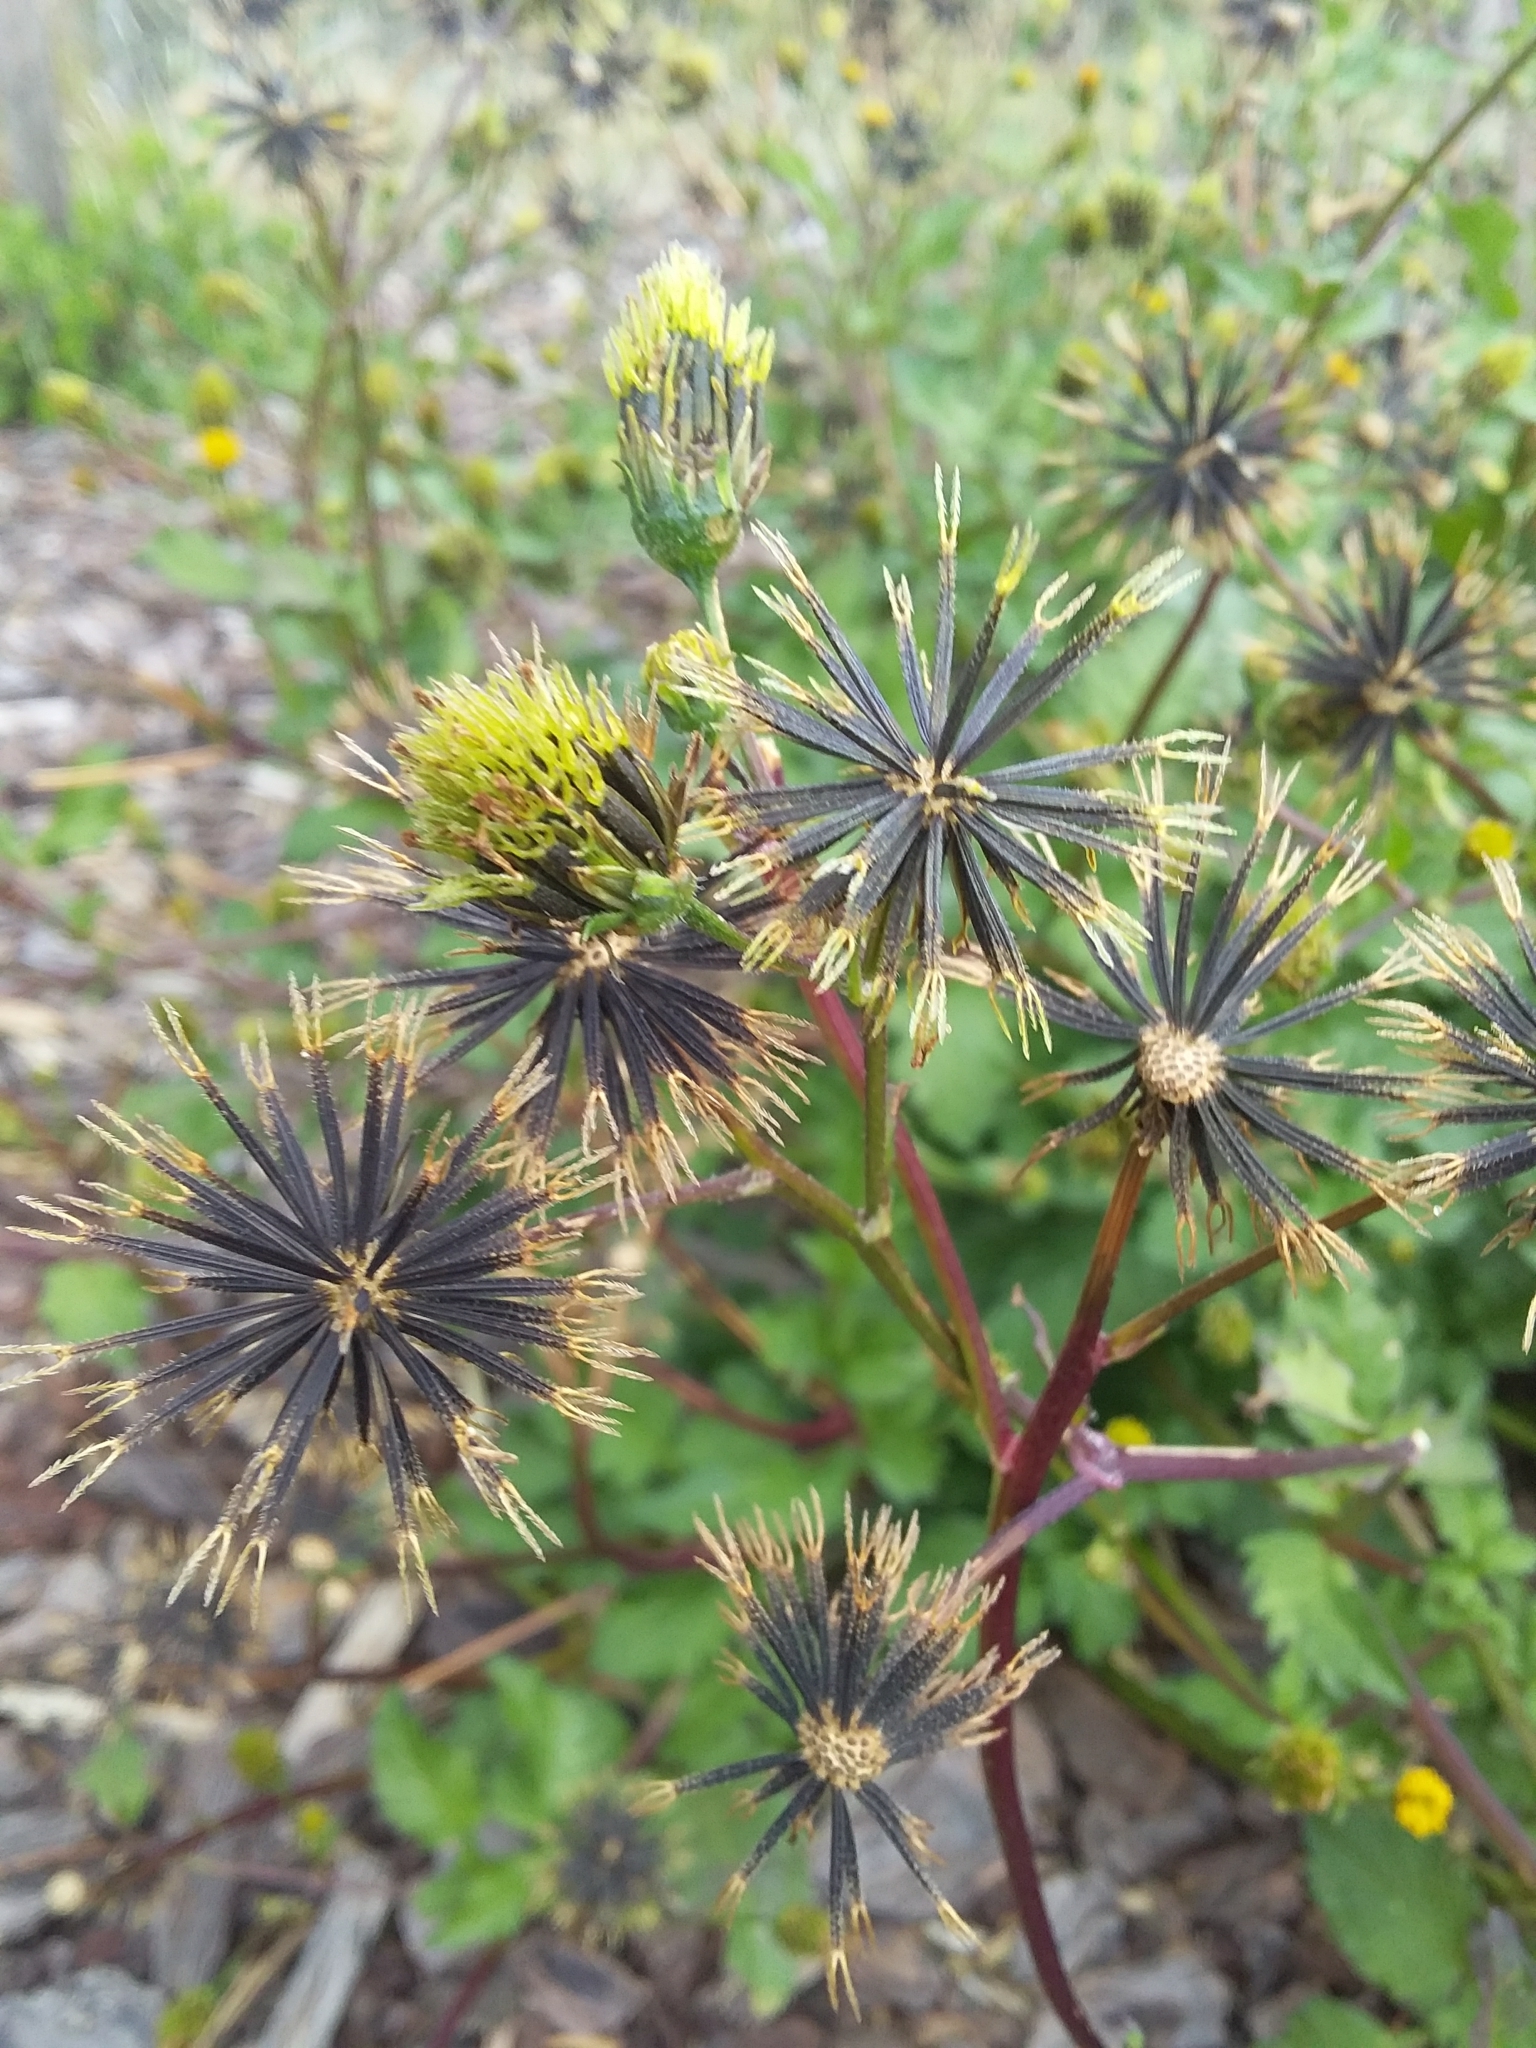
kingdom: Plantae
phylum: Tracheophyta
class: Magnoliopsida
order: Asterales
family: Asteraceae
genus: Bidens
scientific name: Bidens pilosa
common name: Black-jack
